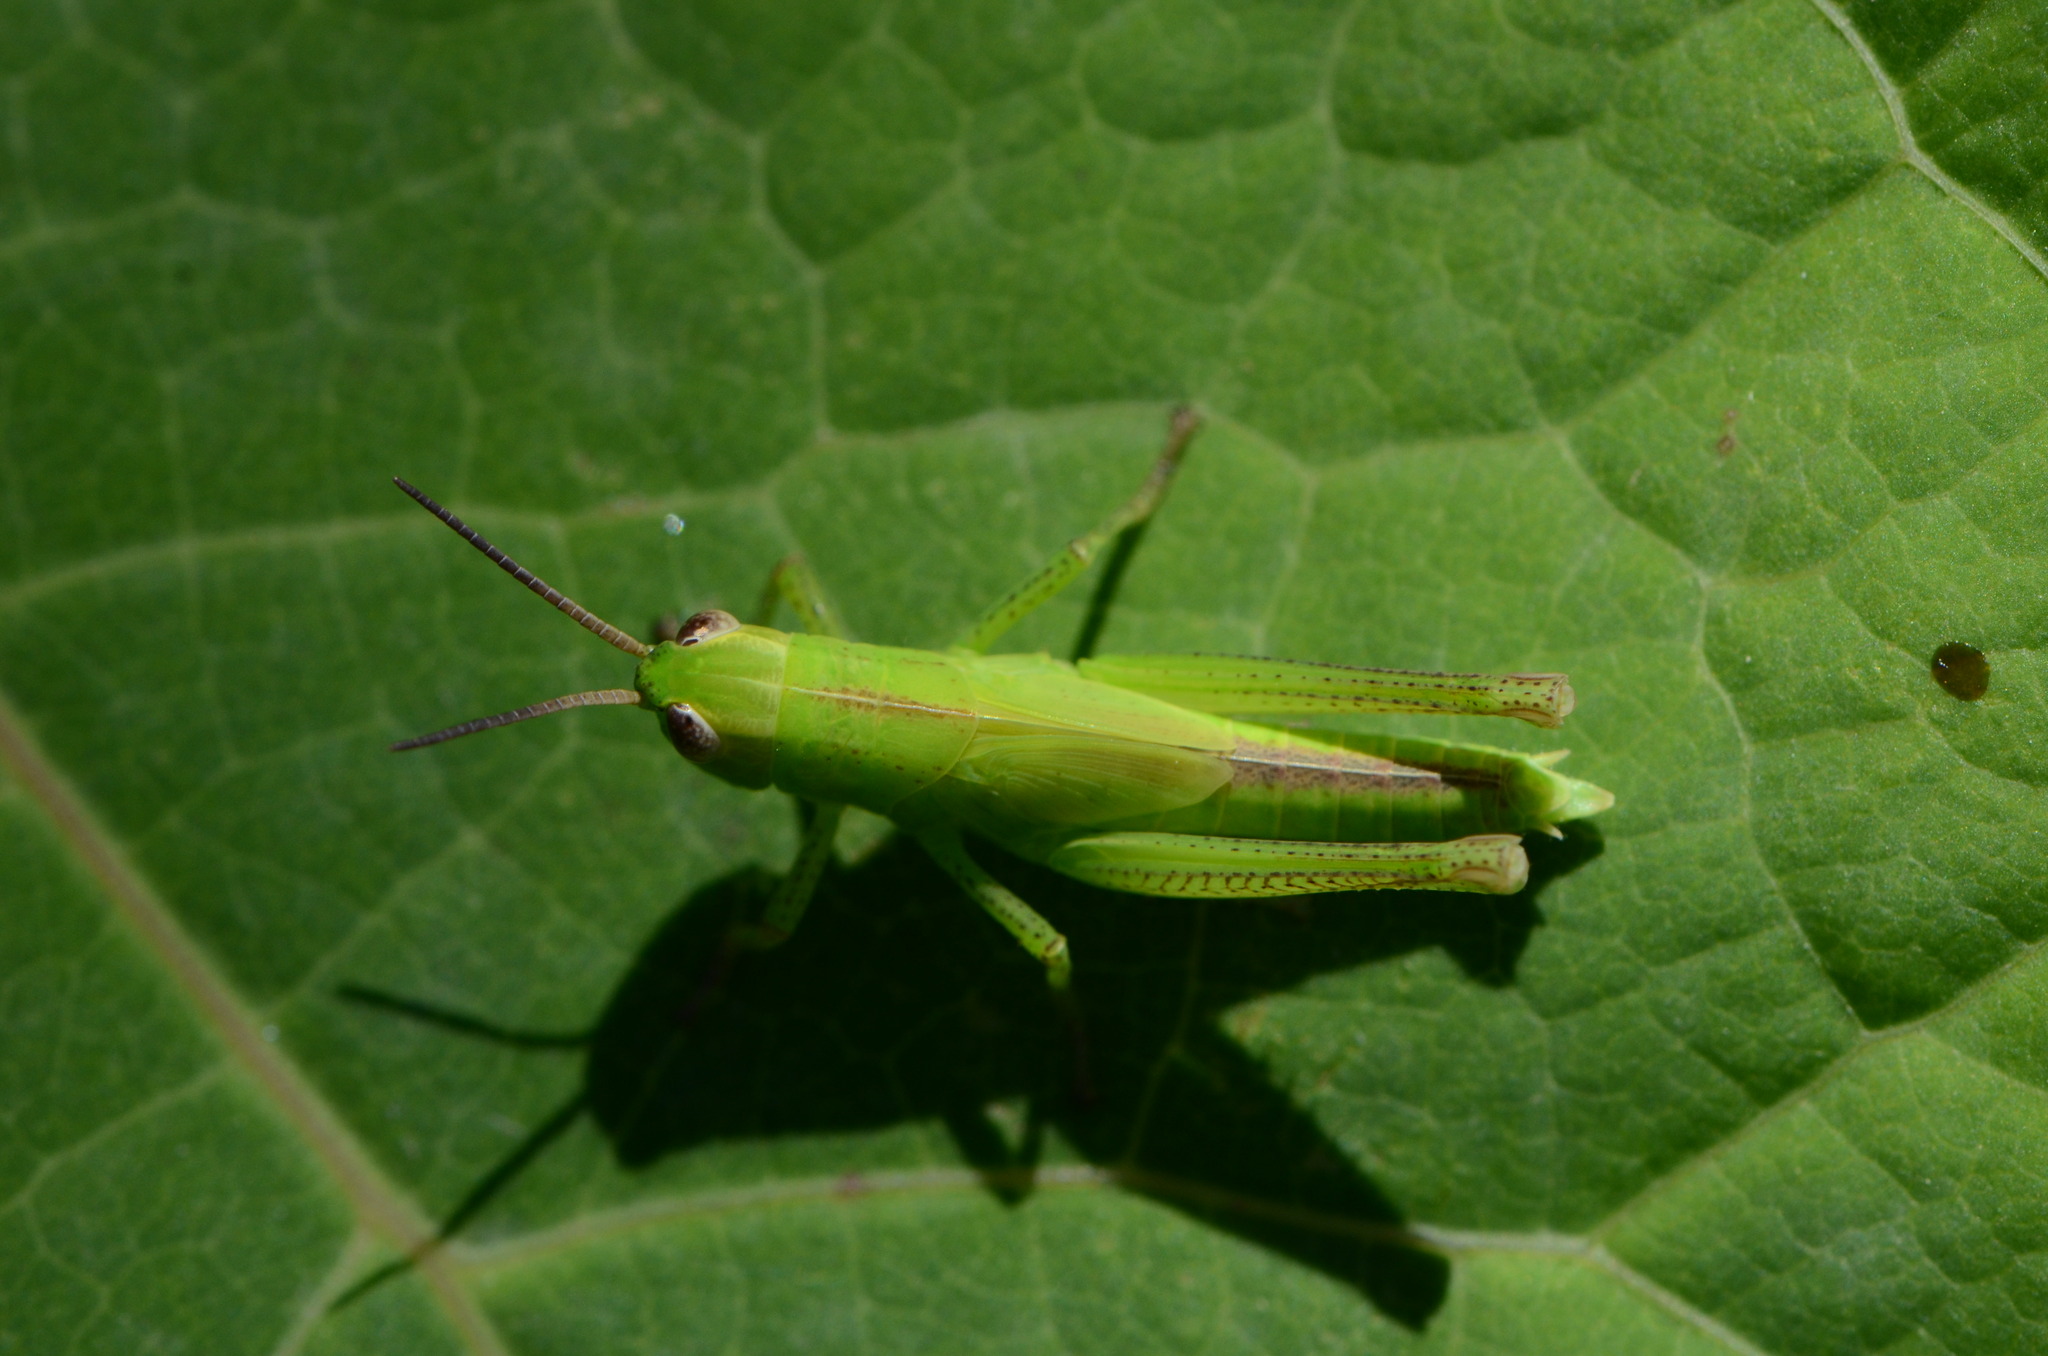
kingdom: Animalia
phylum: Arthropoda
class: Insecta
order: Orthoptera
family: Acrididae
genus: Mecostethus
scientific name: Mecostethus parapleurus
